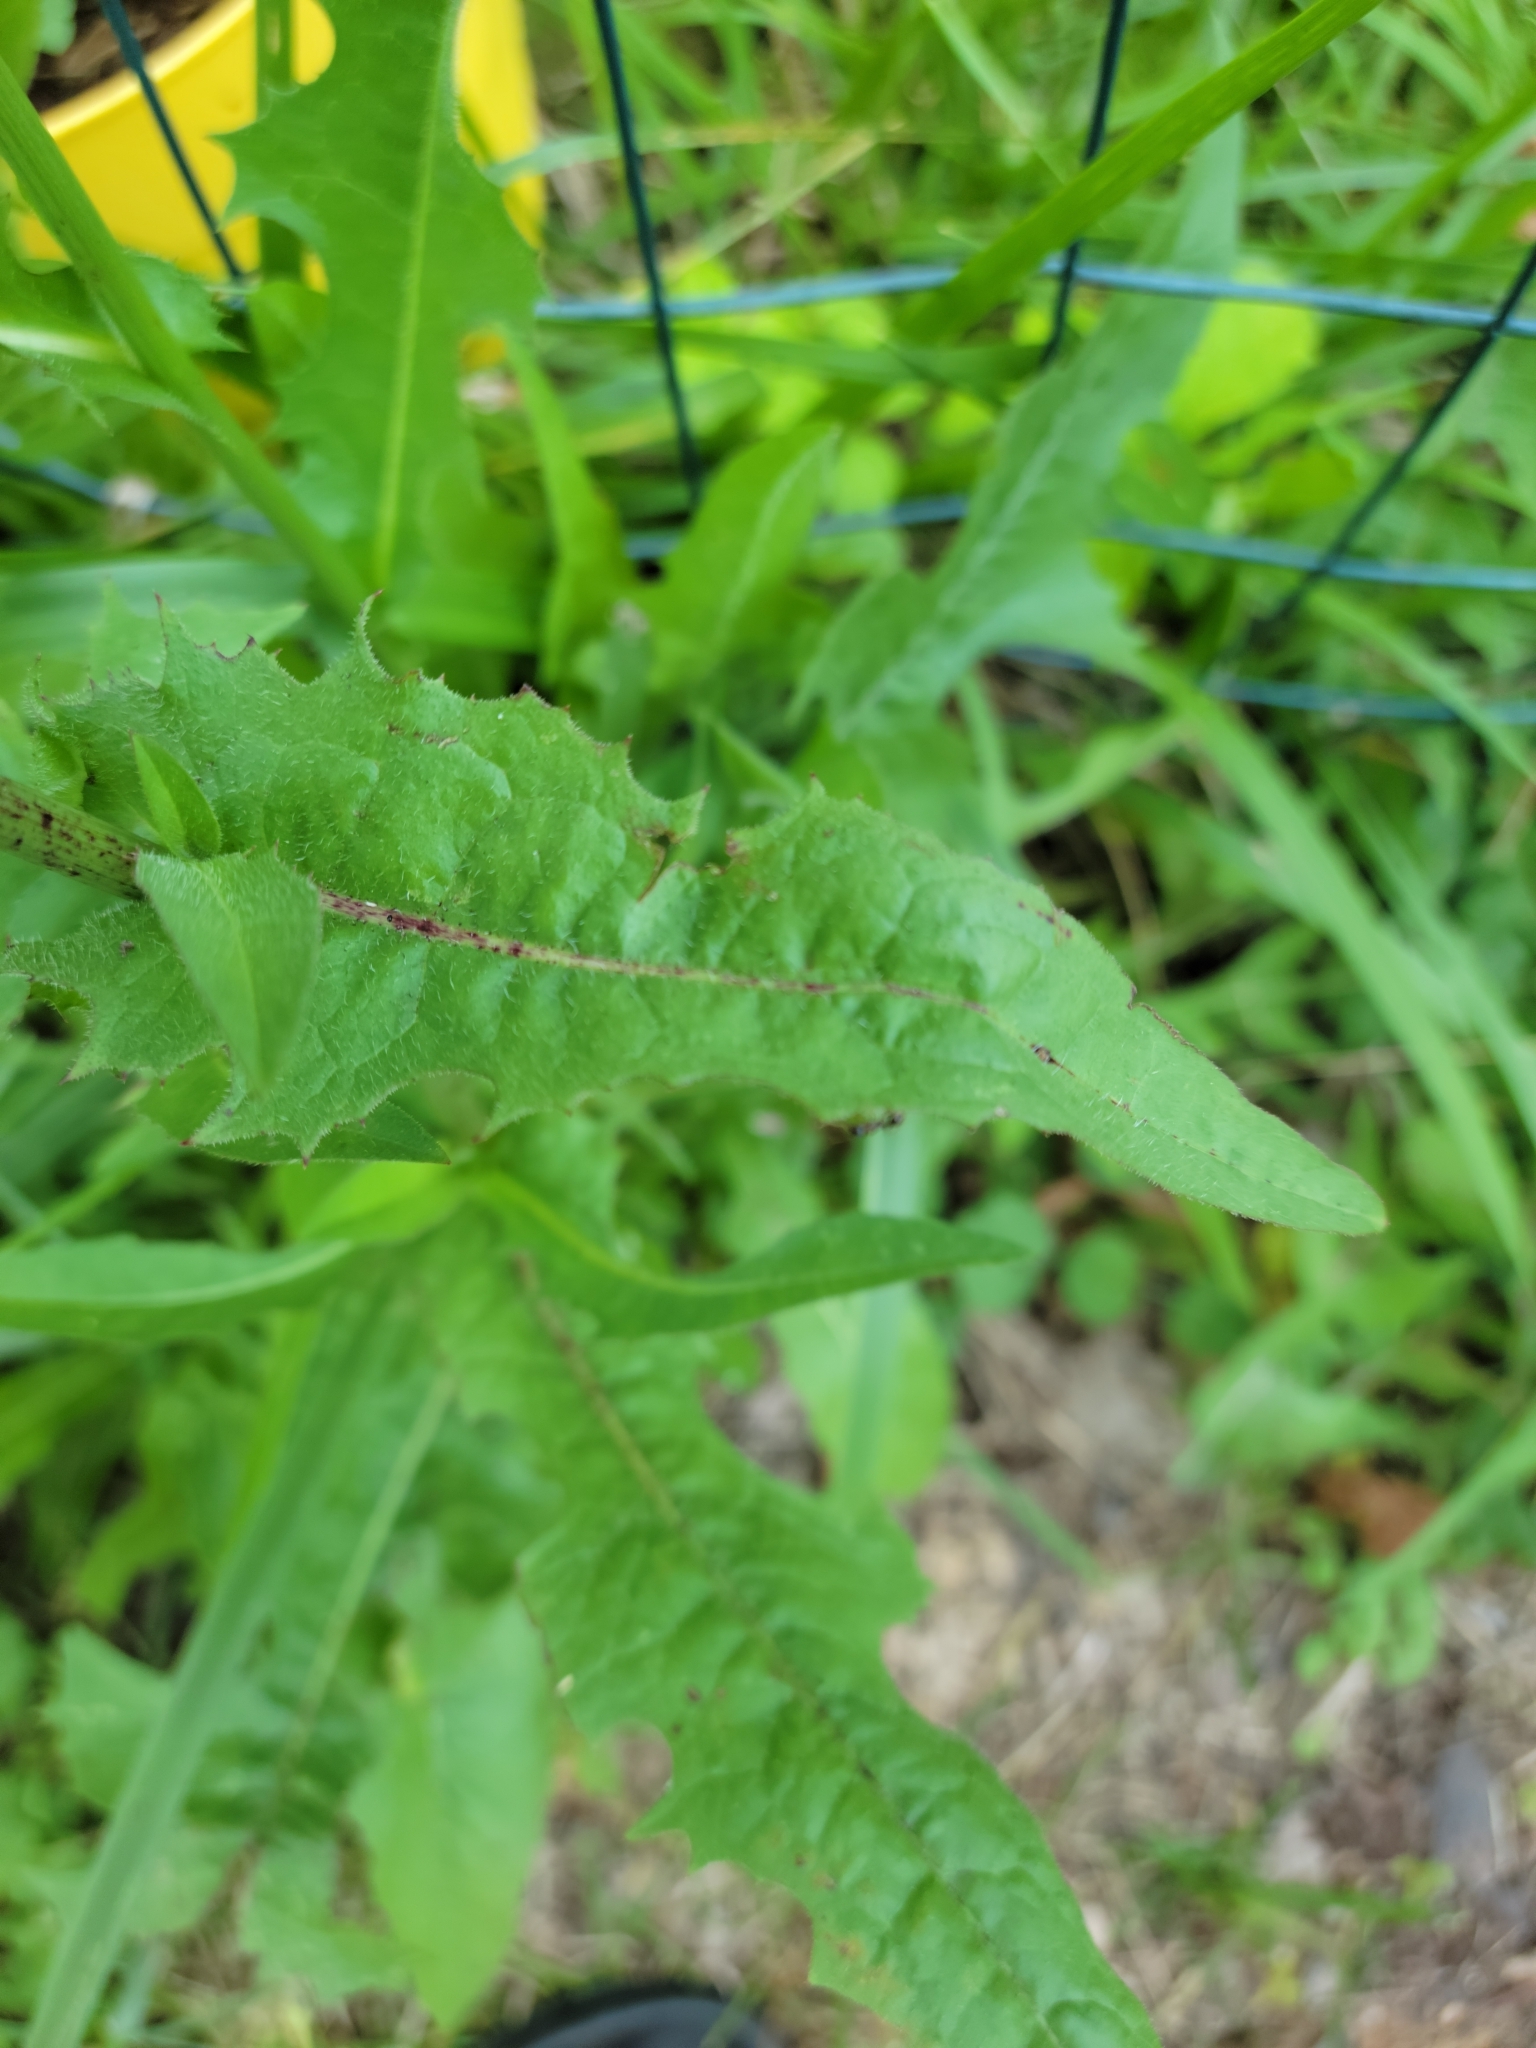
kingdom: Plantae
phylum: Tracheophyta
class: Magnoliopsida
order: Asterales
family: Asteraceae
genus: Cichorium
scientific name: Cichorium intybus
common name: Chicory
